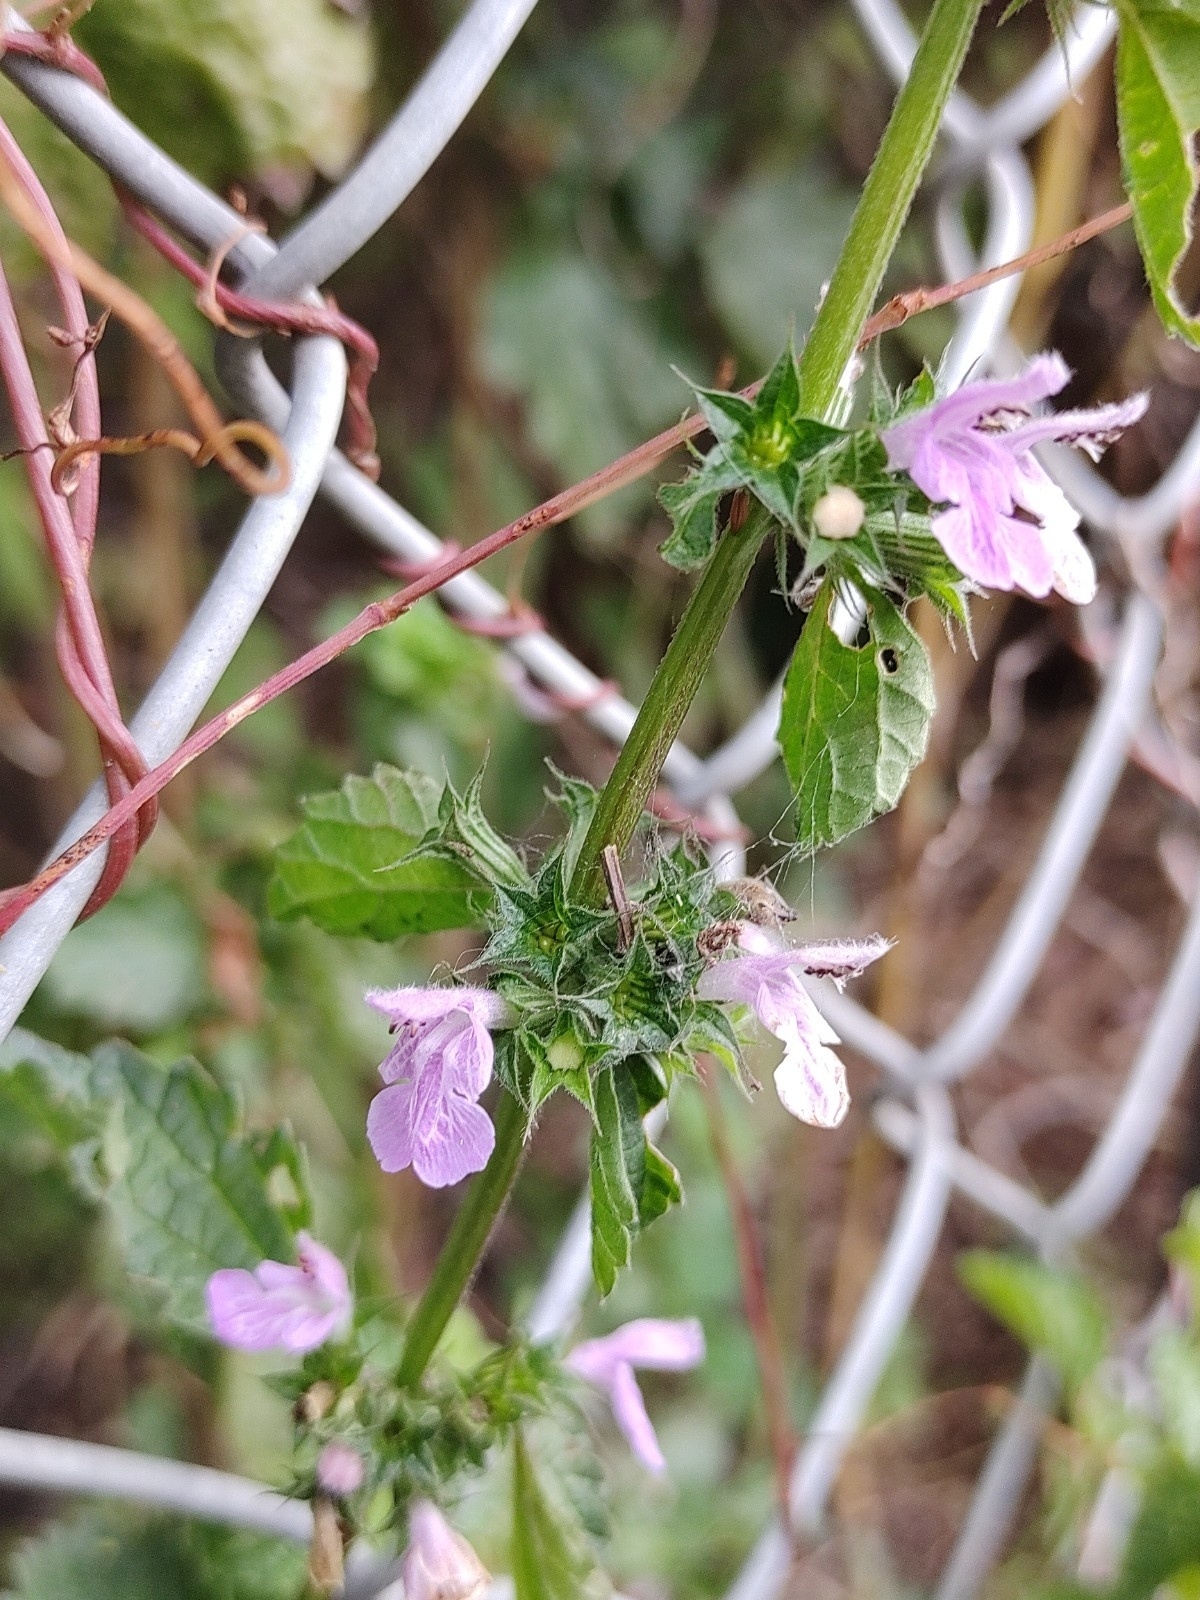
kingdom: Plantae
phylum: Tracheophyta
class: Magnoliopsida
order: Lamiales
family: Lamiaceae
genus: Ballota
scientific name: Ballota nigra
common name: Black horehound
